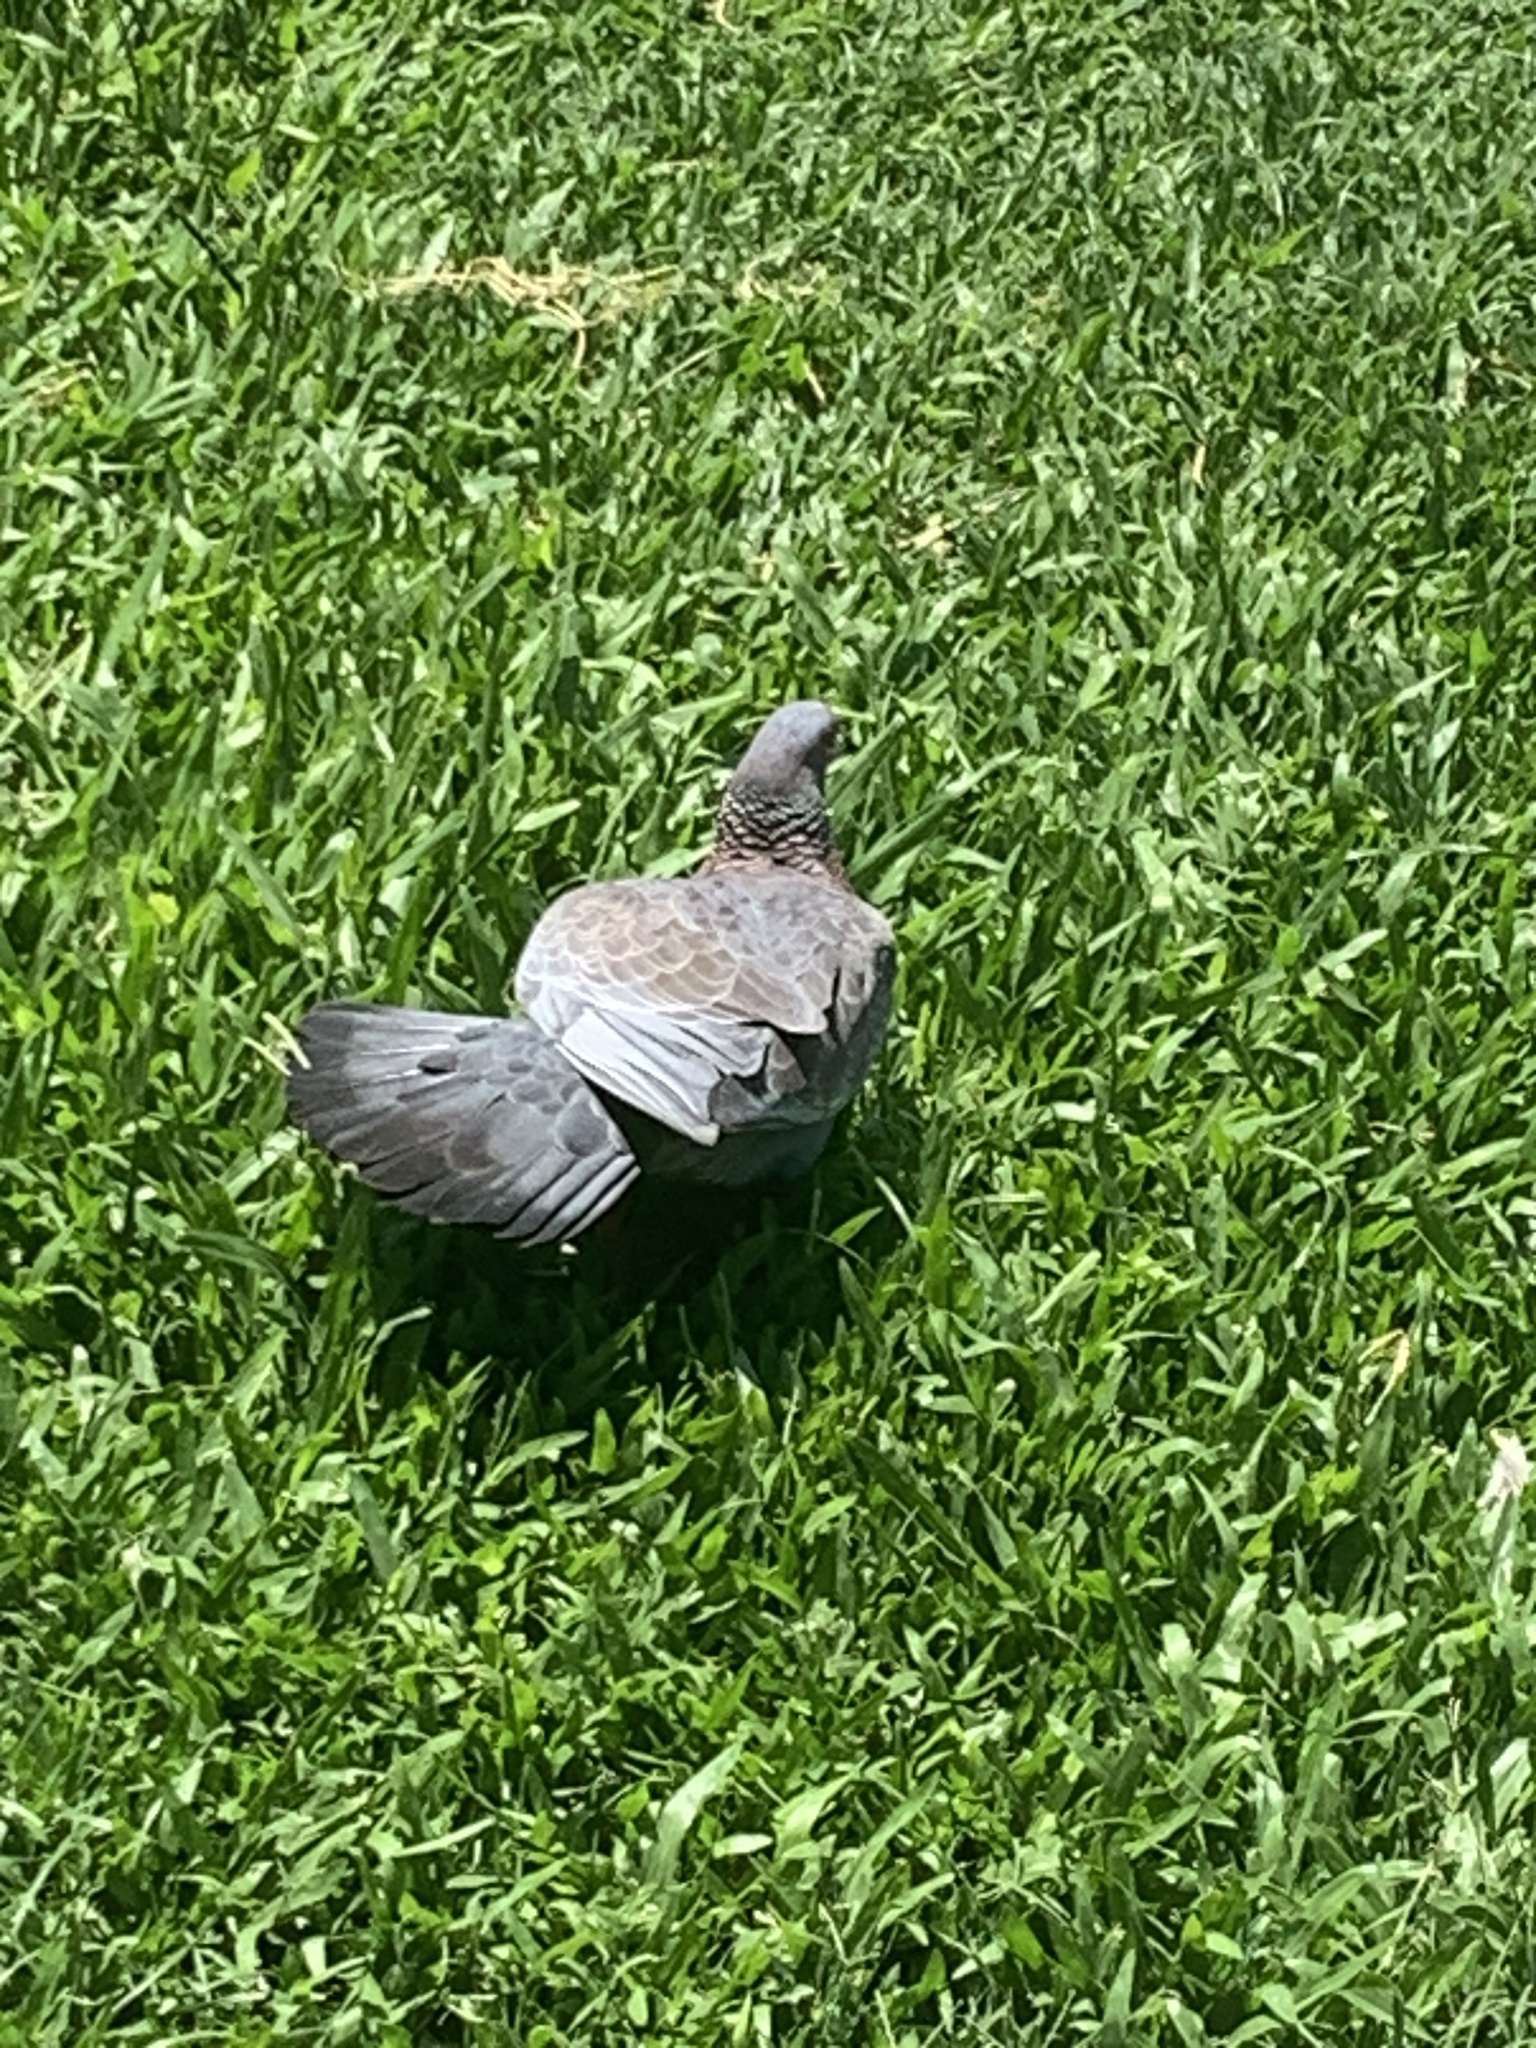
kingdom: Animalia
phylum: Chordata
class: Aves
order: Columbiformes
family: Columbidae
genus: Patagioenas
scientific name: Patagioenas picazuro
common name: Picazuro pigeon
